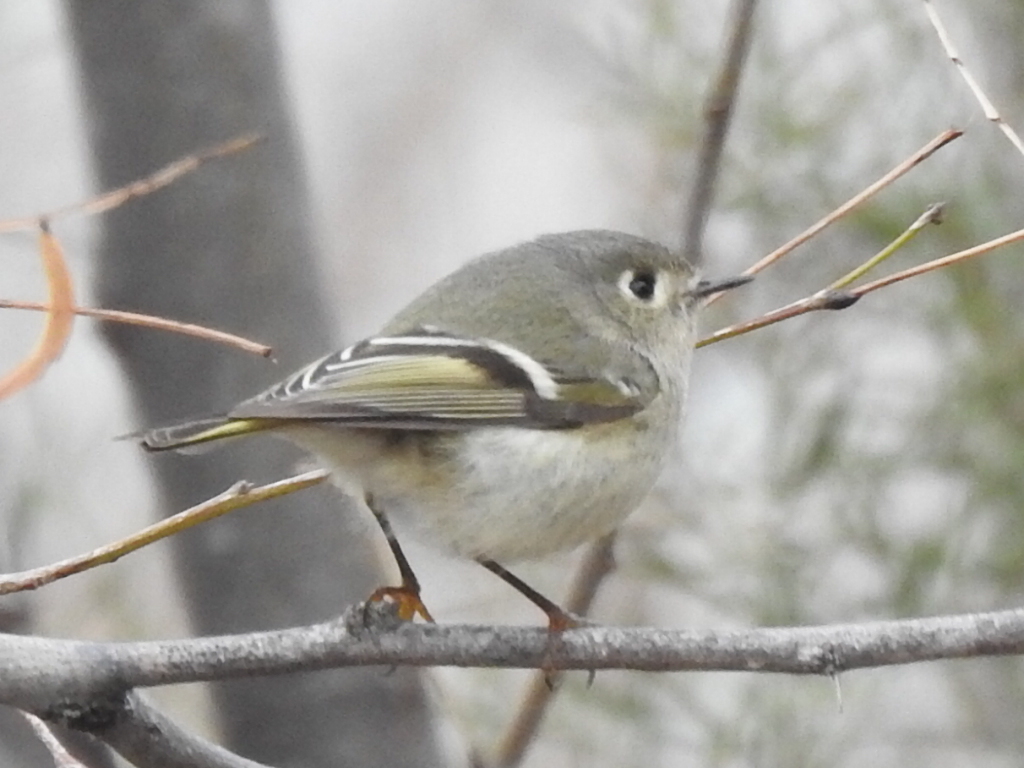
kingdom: Animalia
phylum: Chordata
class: Aves
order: Passeriformes
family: Regulidae
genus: Regulus
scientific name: Regulus calendula
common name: Ruby-crowned kinglet
